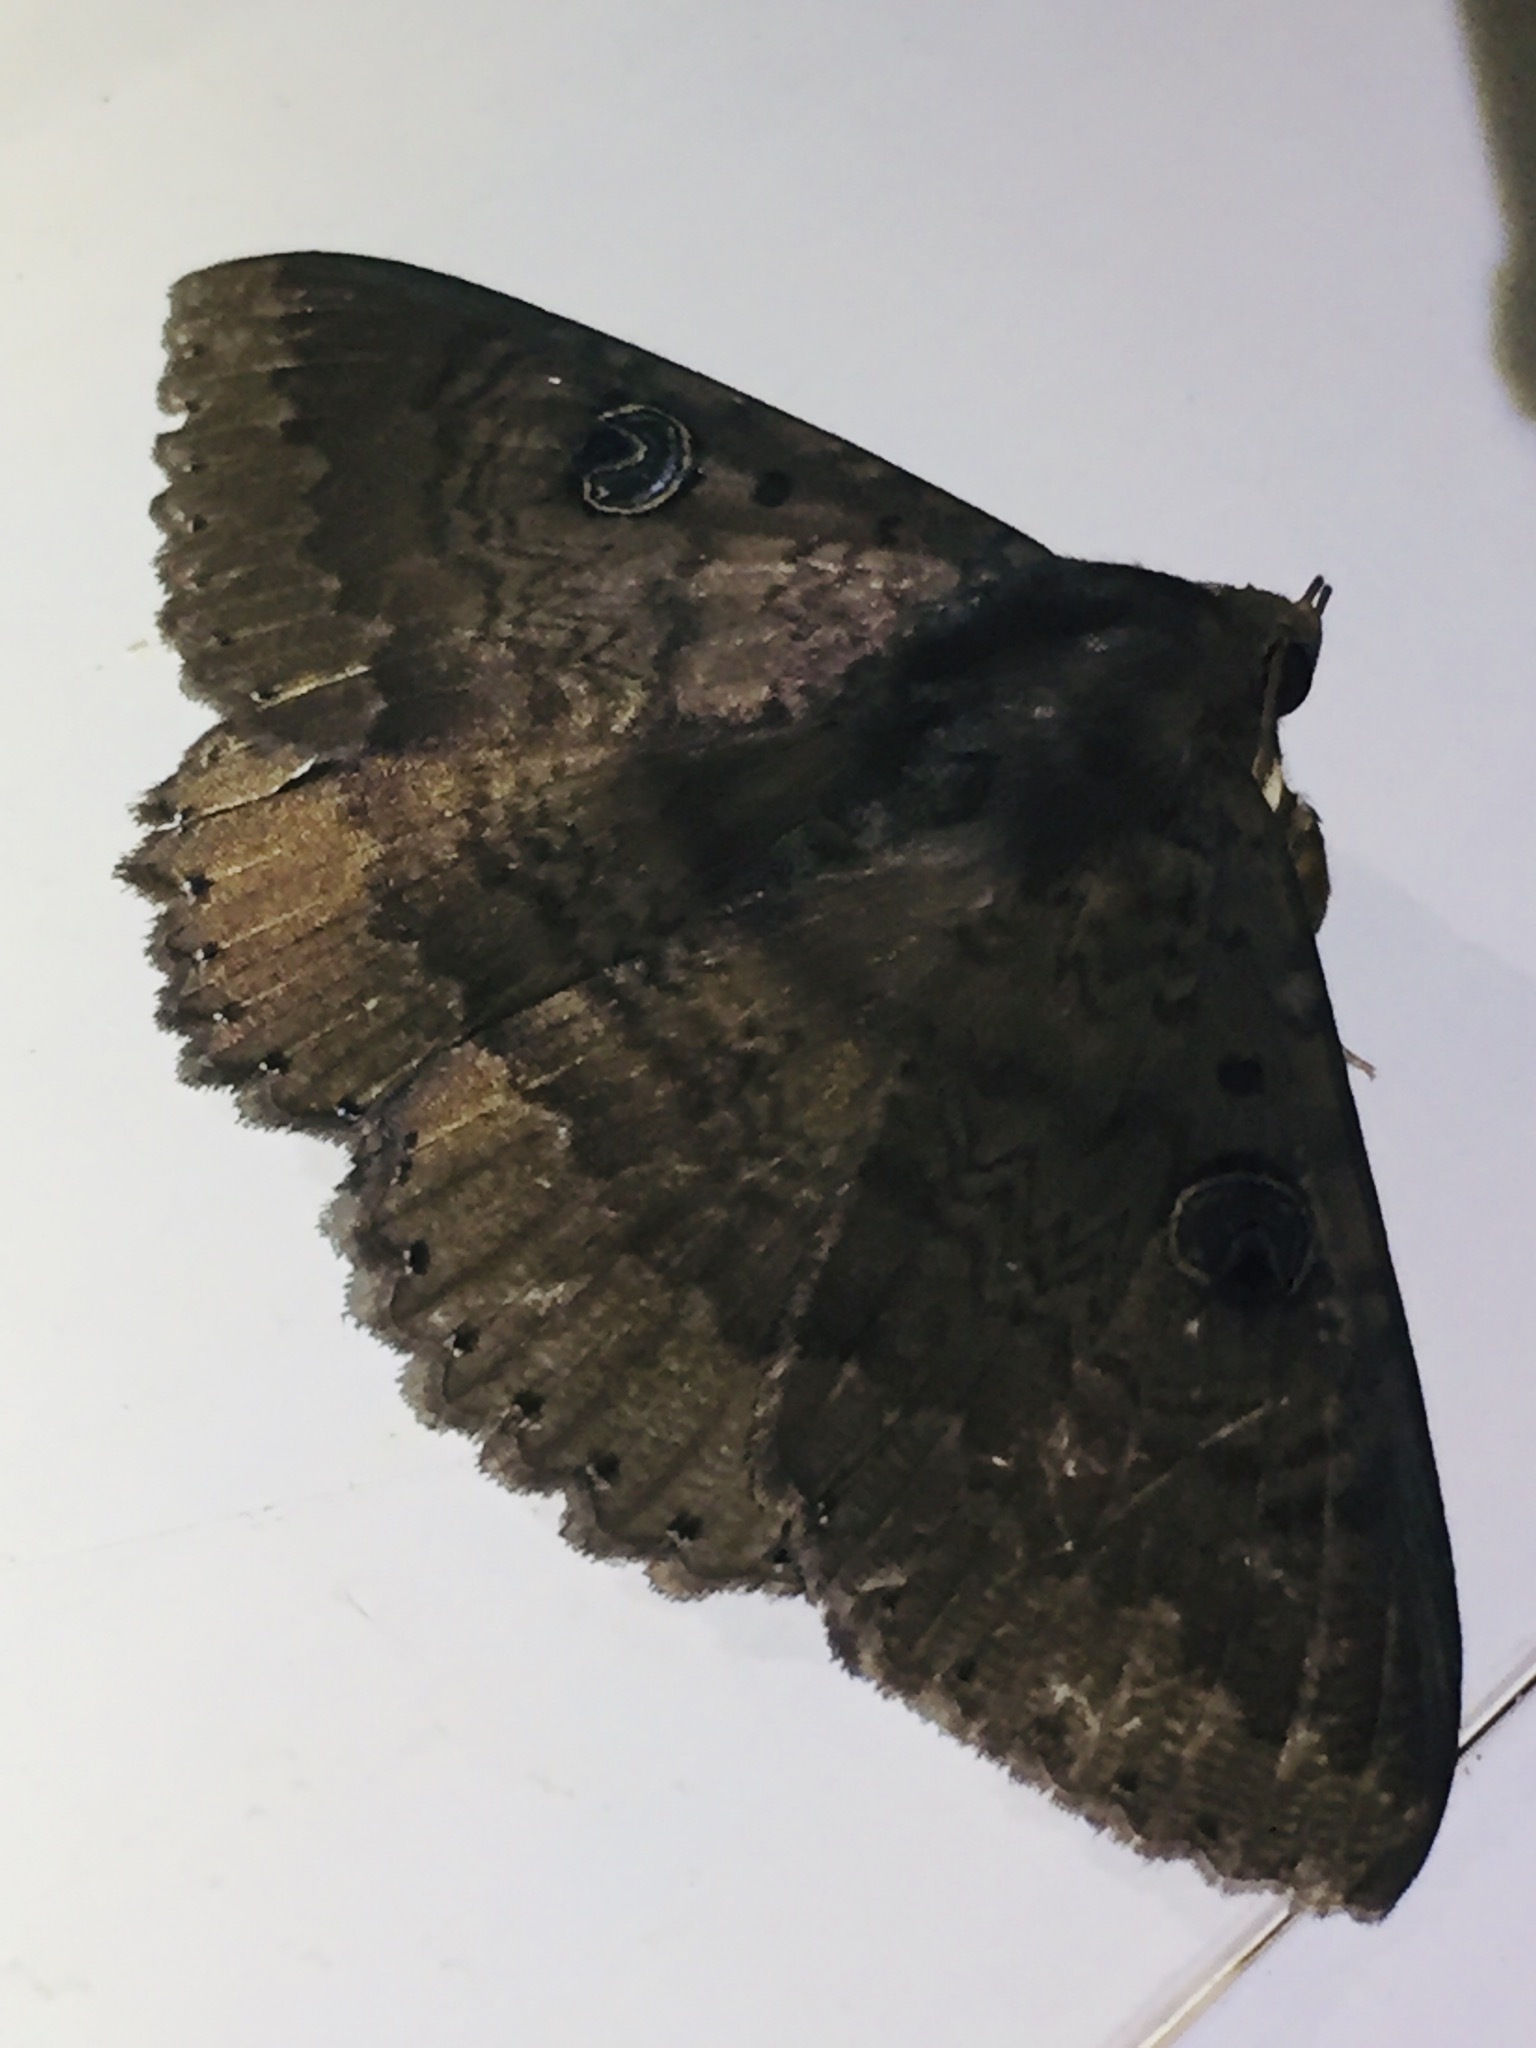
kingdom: Animalia
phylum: Arthropoda
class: Insecta
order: Lepidoptera
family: Erebidae
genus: Dasypodia
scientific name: Dasypodia cymatodes
